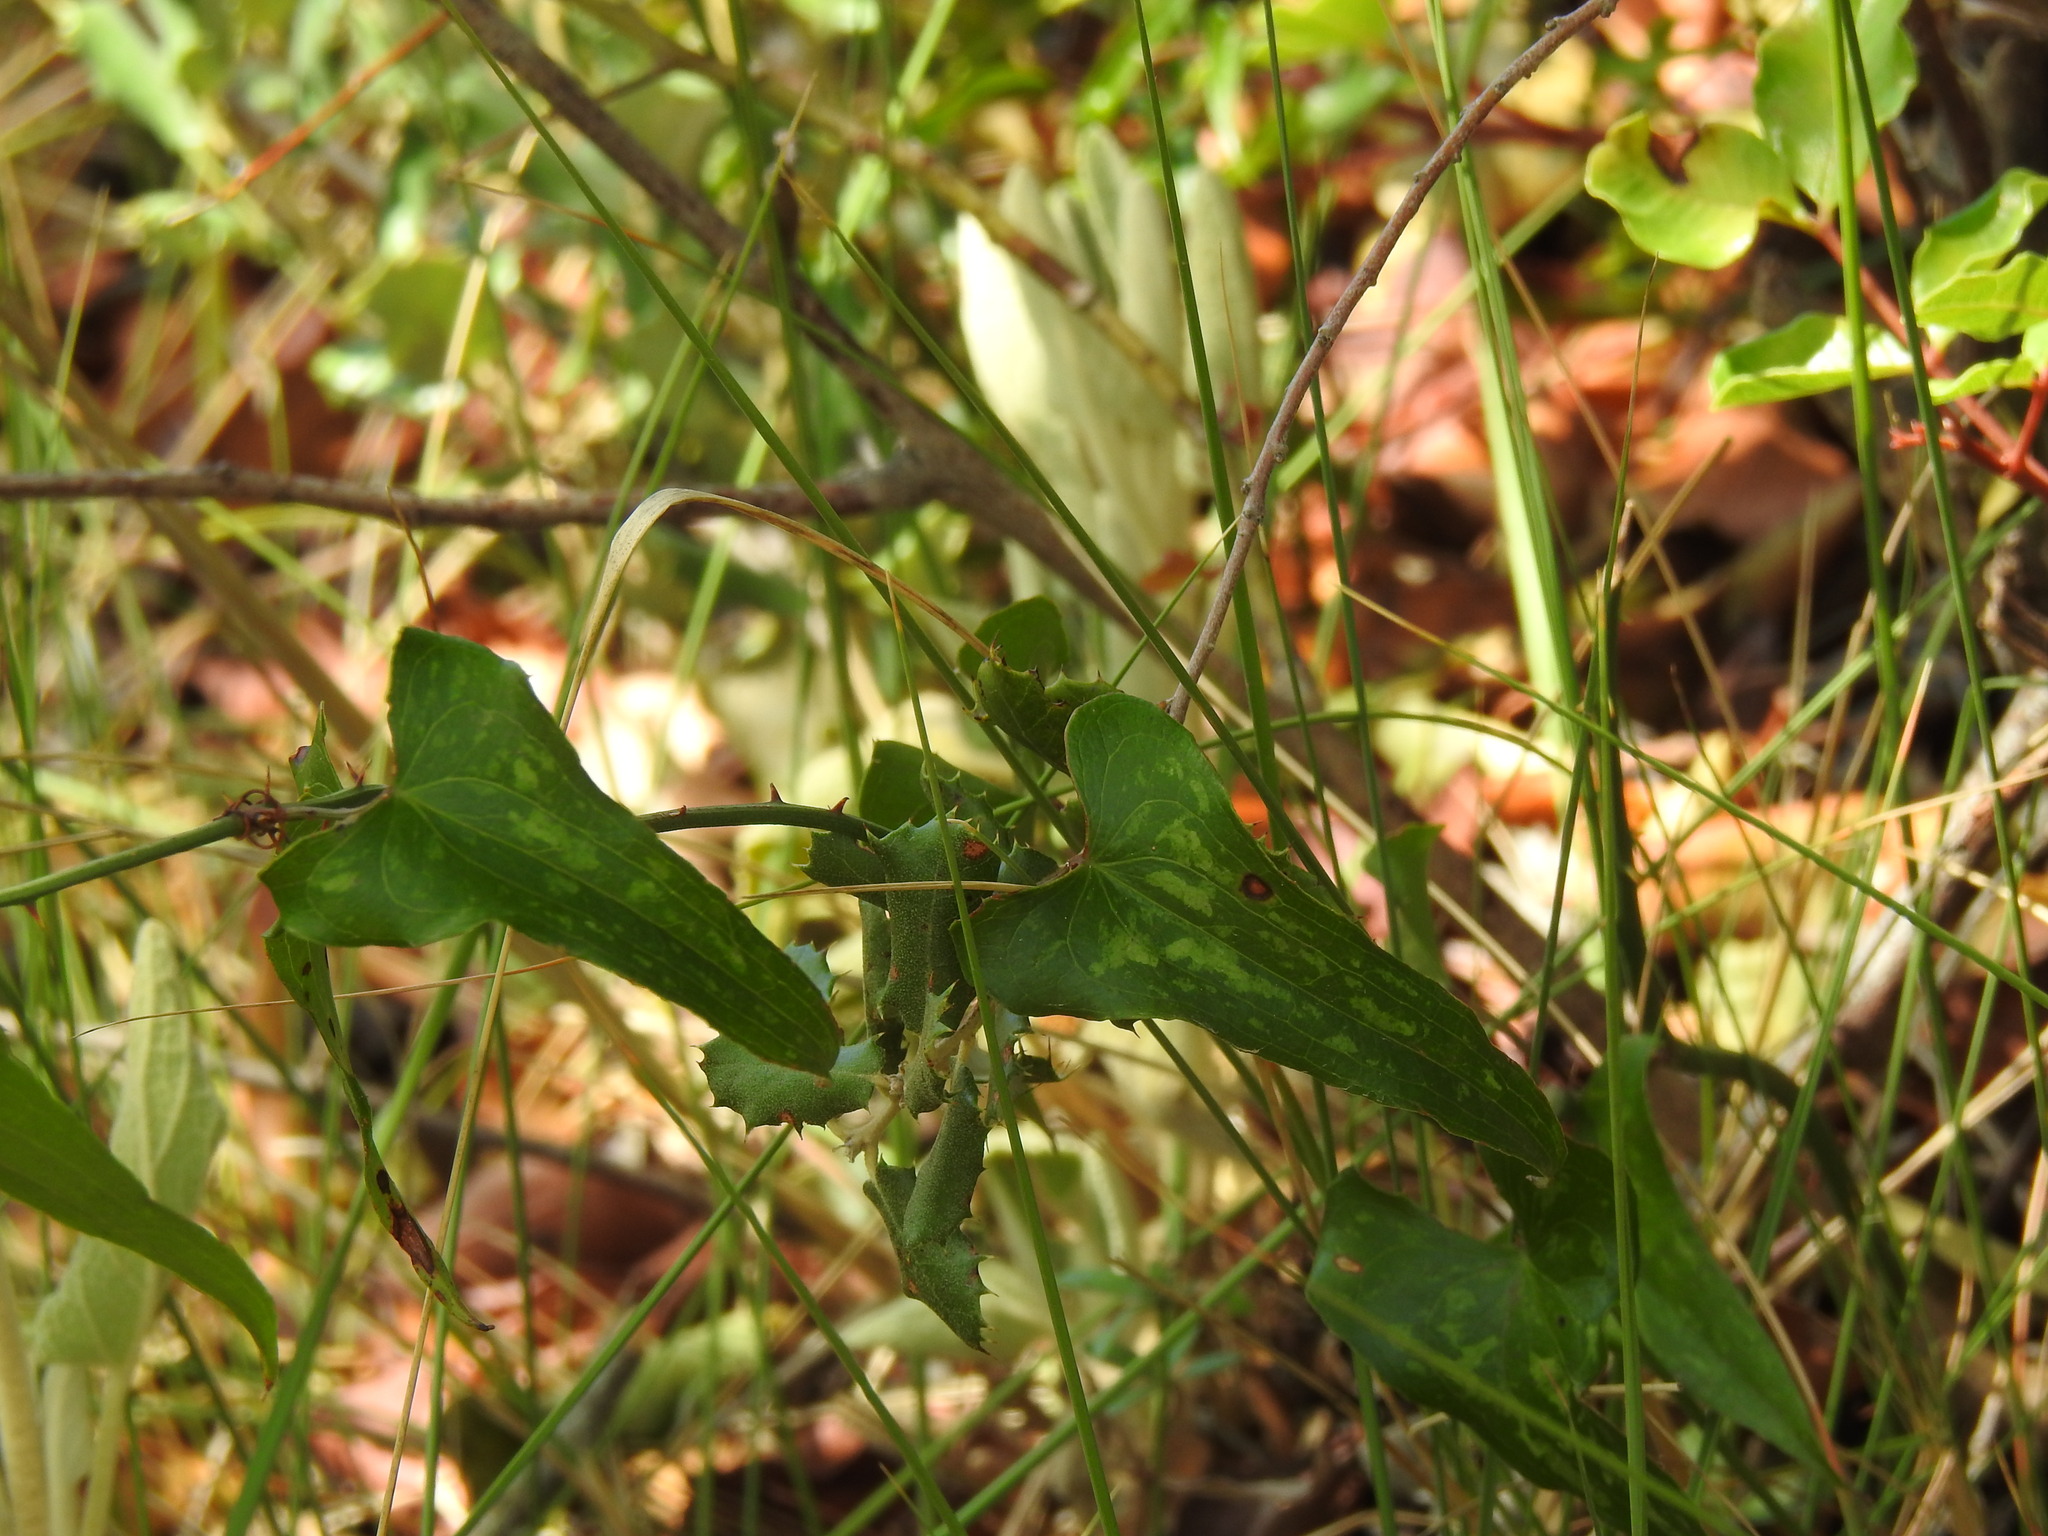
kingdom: Plantae
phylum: Tracheophyta
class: Liliopsida
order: Liliales
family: Smilacaceae
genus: Smilax
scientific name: Smilax aspera
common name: Common smilax
